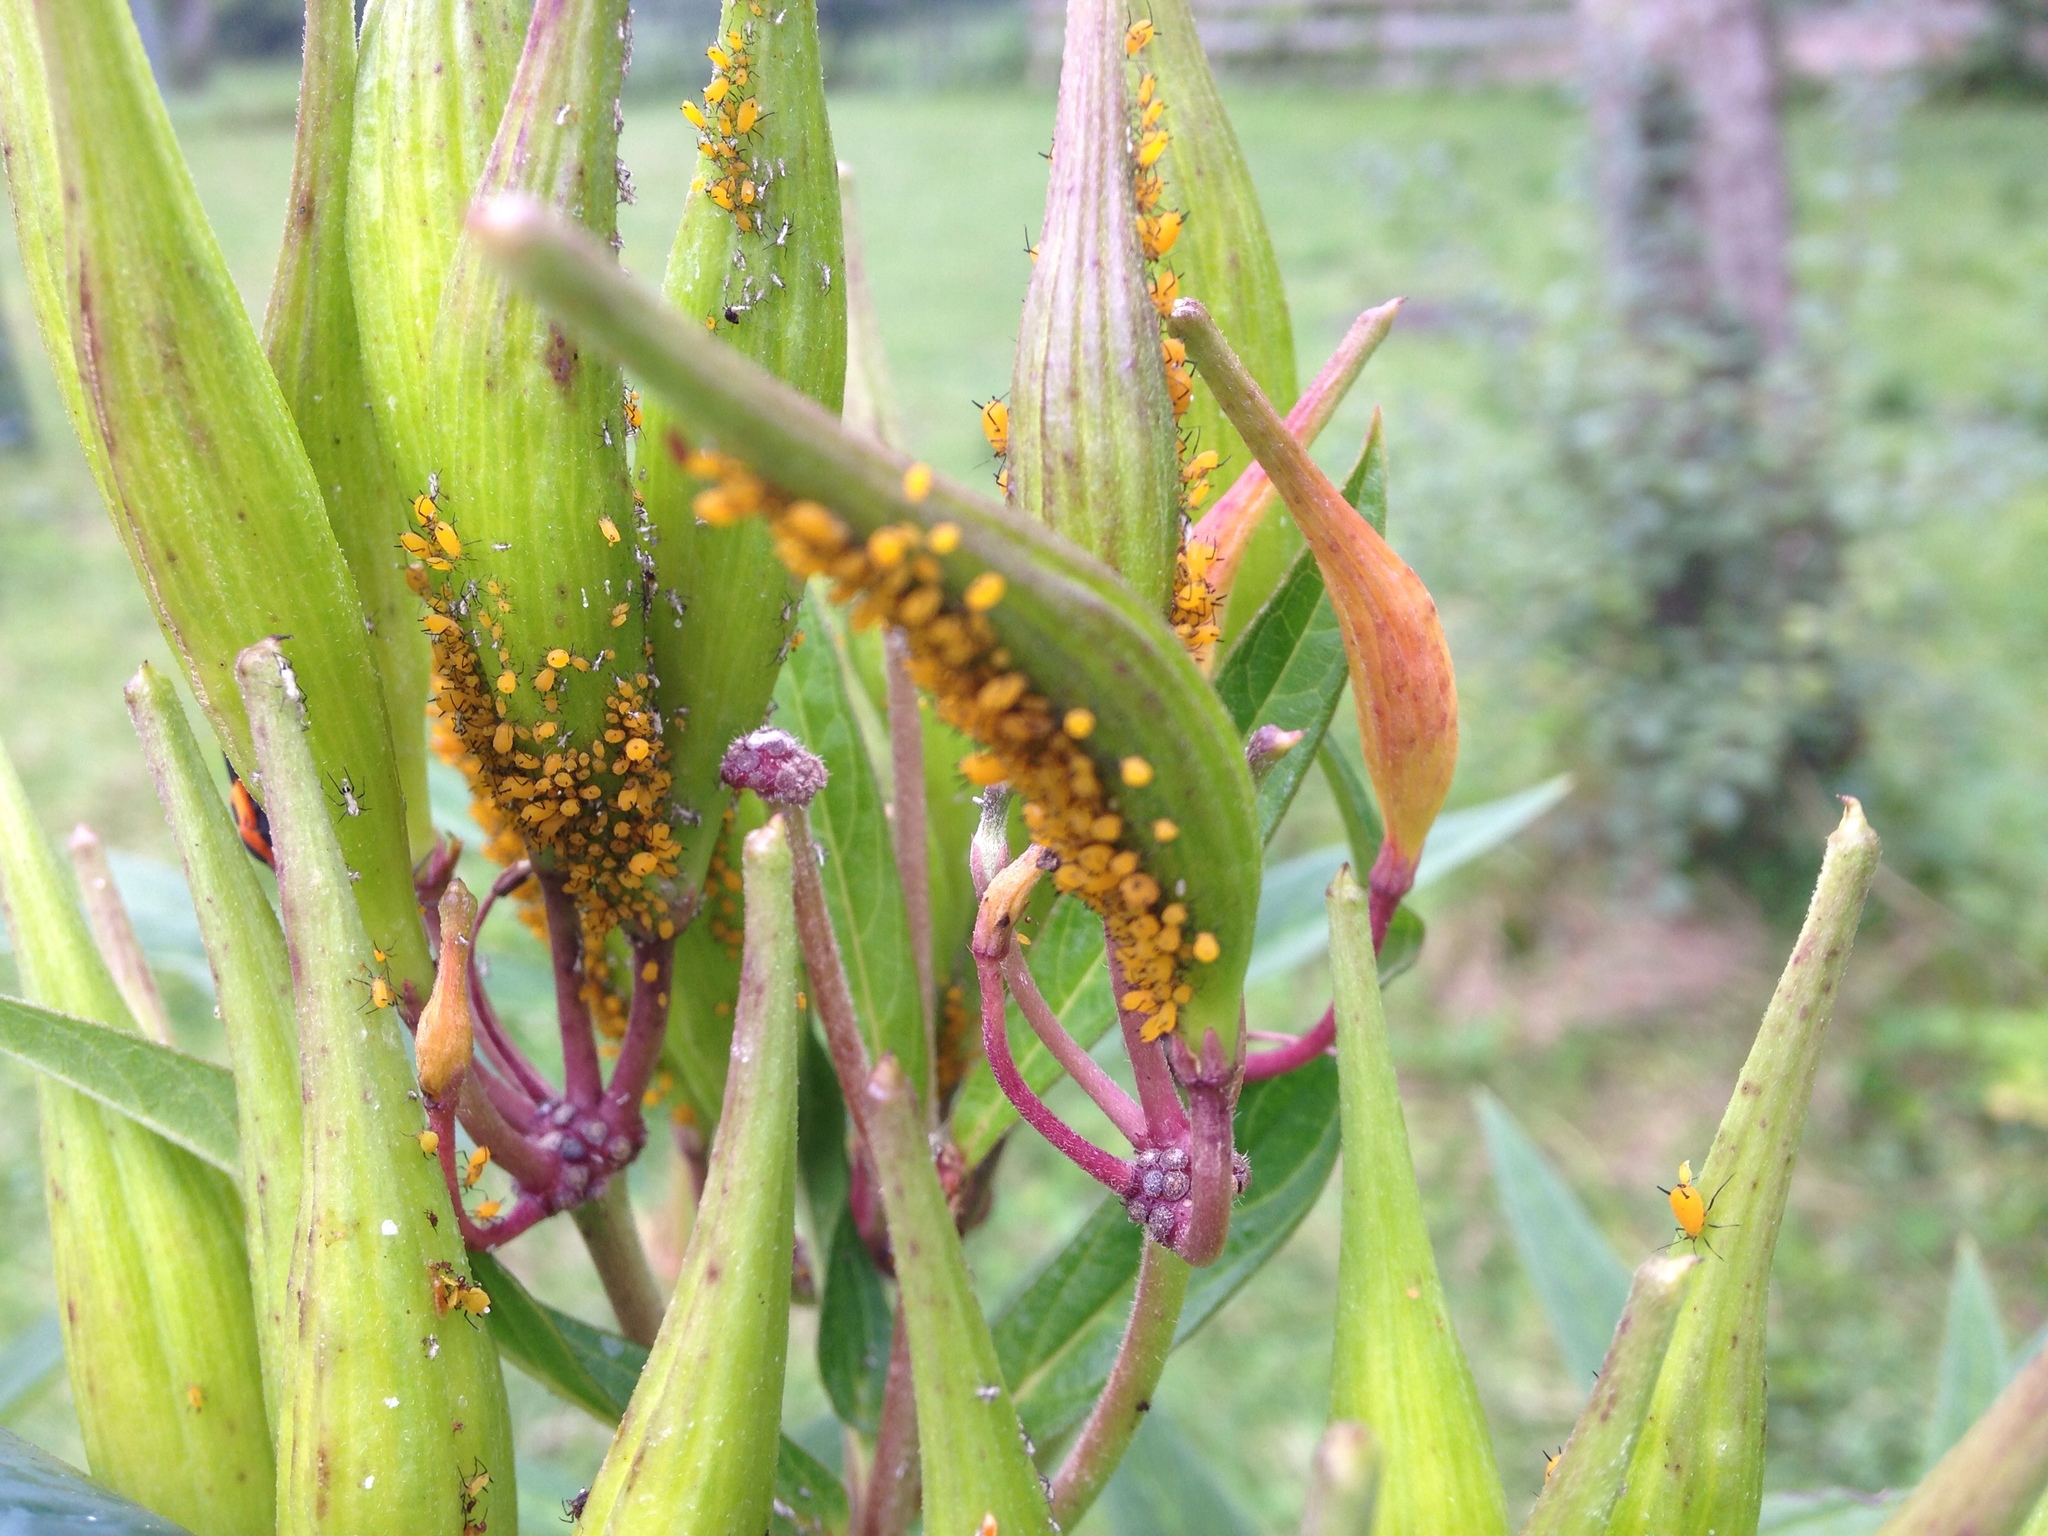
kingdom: Animalia
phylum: Arthropoda
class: Insecta
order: Hemiptera
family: Aphididae
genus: Aphis
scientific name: Aphis nerii
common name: Oleander aphid
